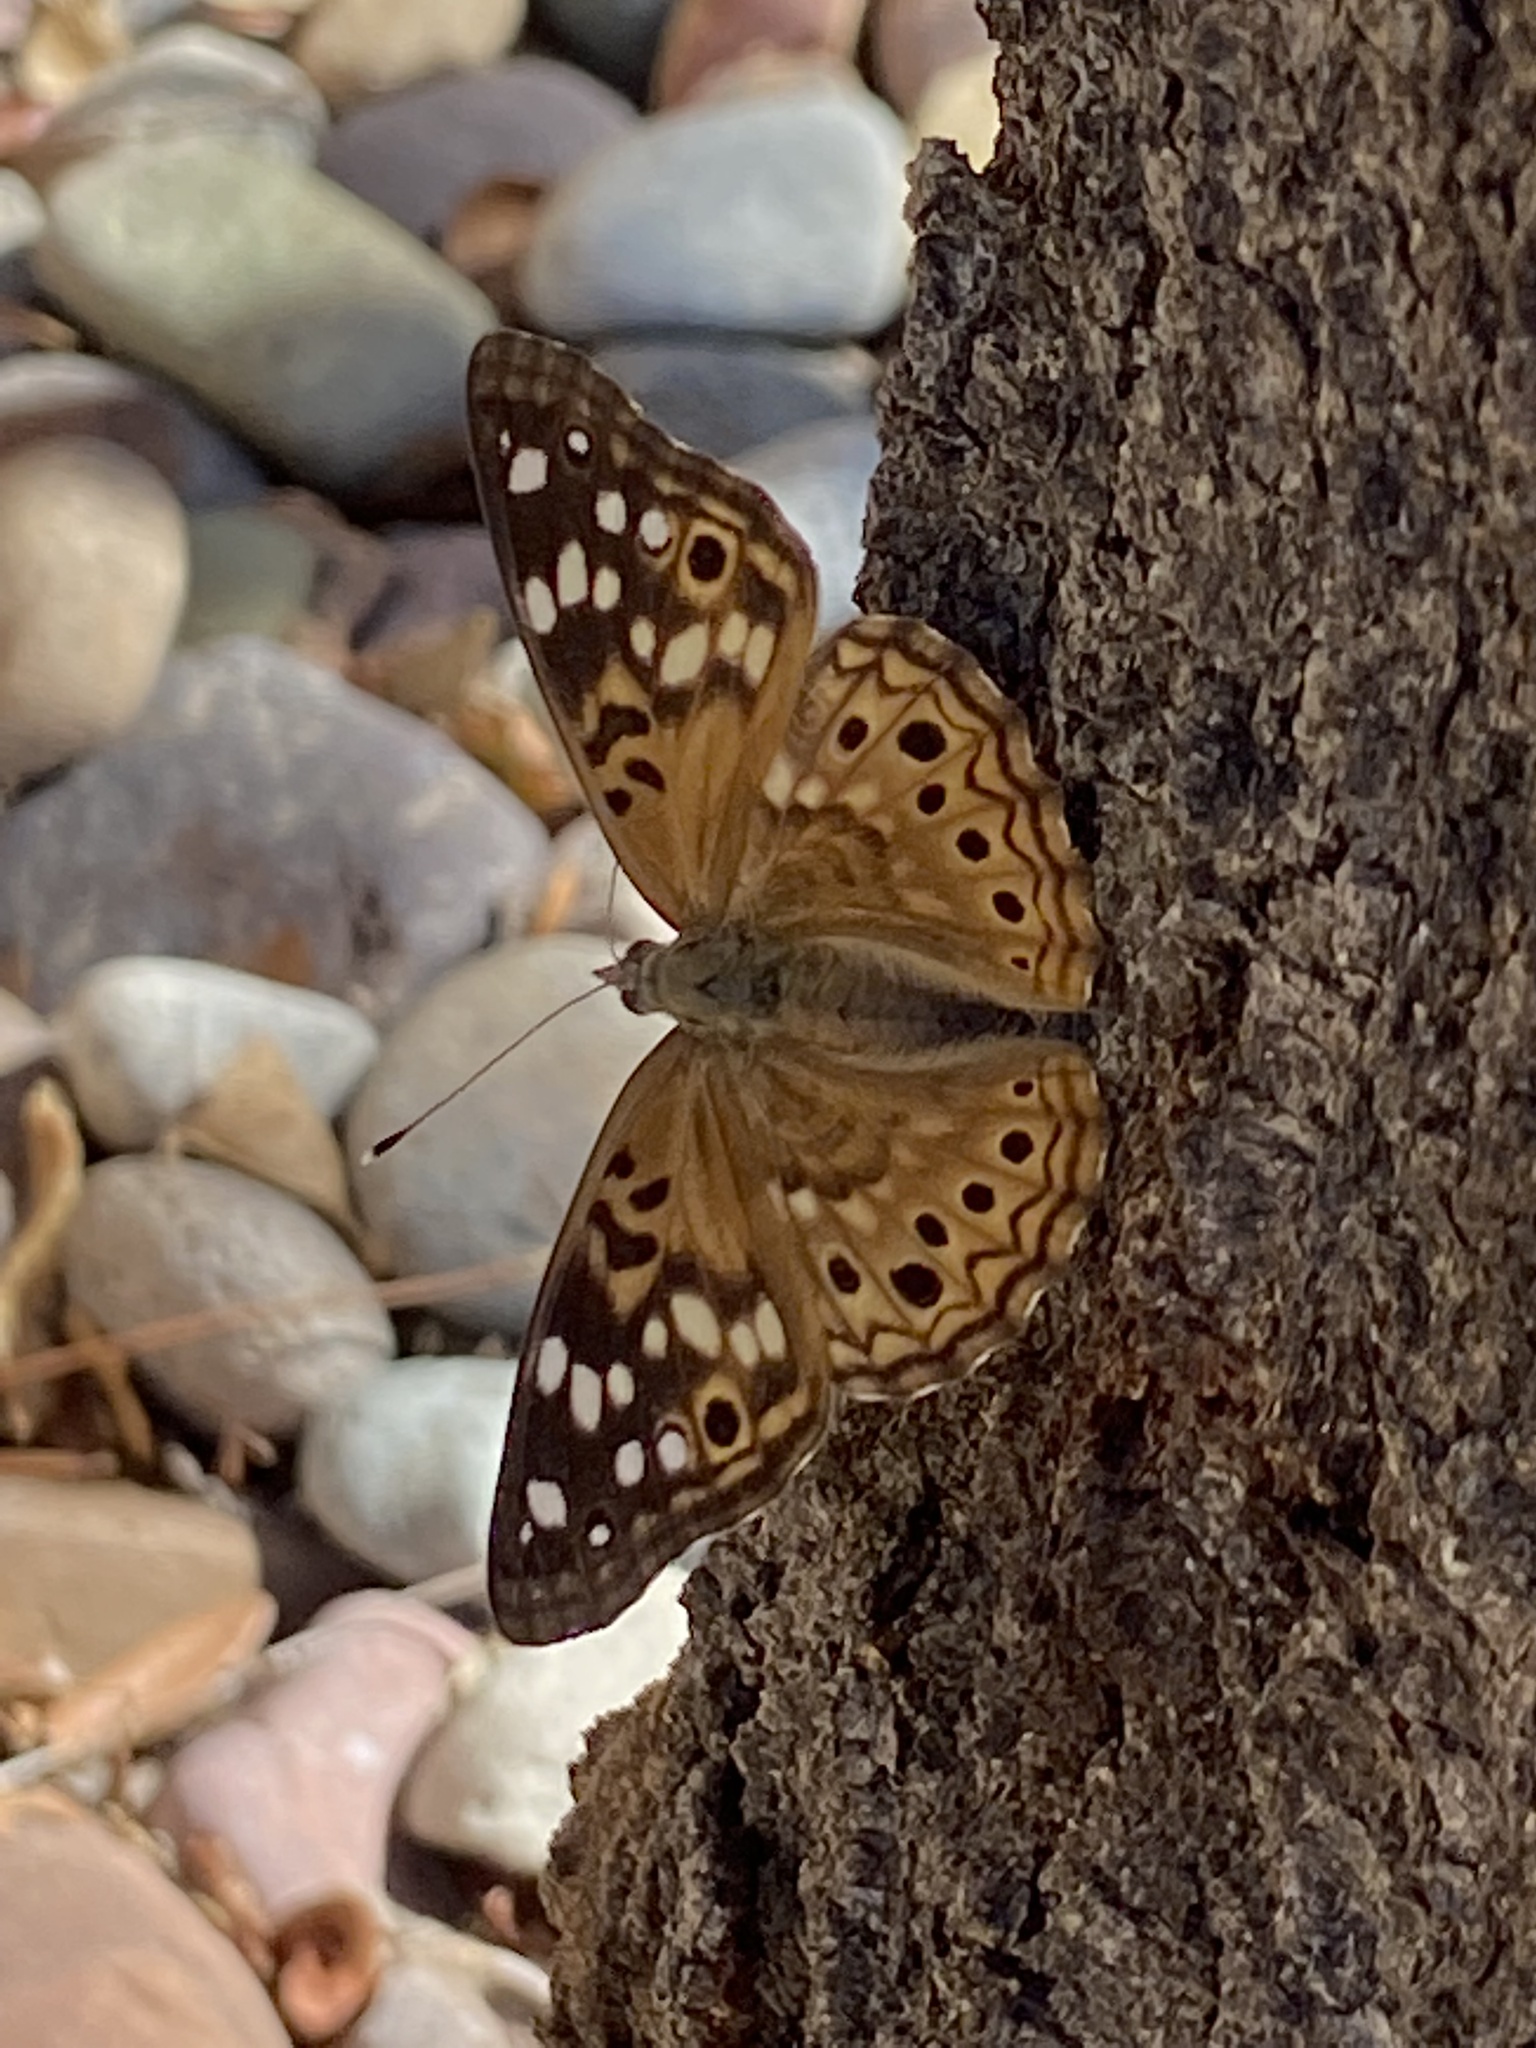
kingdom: Animalia
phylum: Arthropoda
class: Insecta
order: Lepidoptera
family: Nymphalidae
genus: Asterocampa
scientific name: Asterocampa celtis
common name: Hackberry emperor
